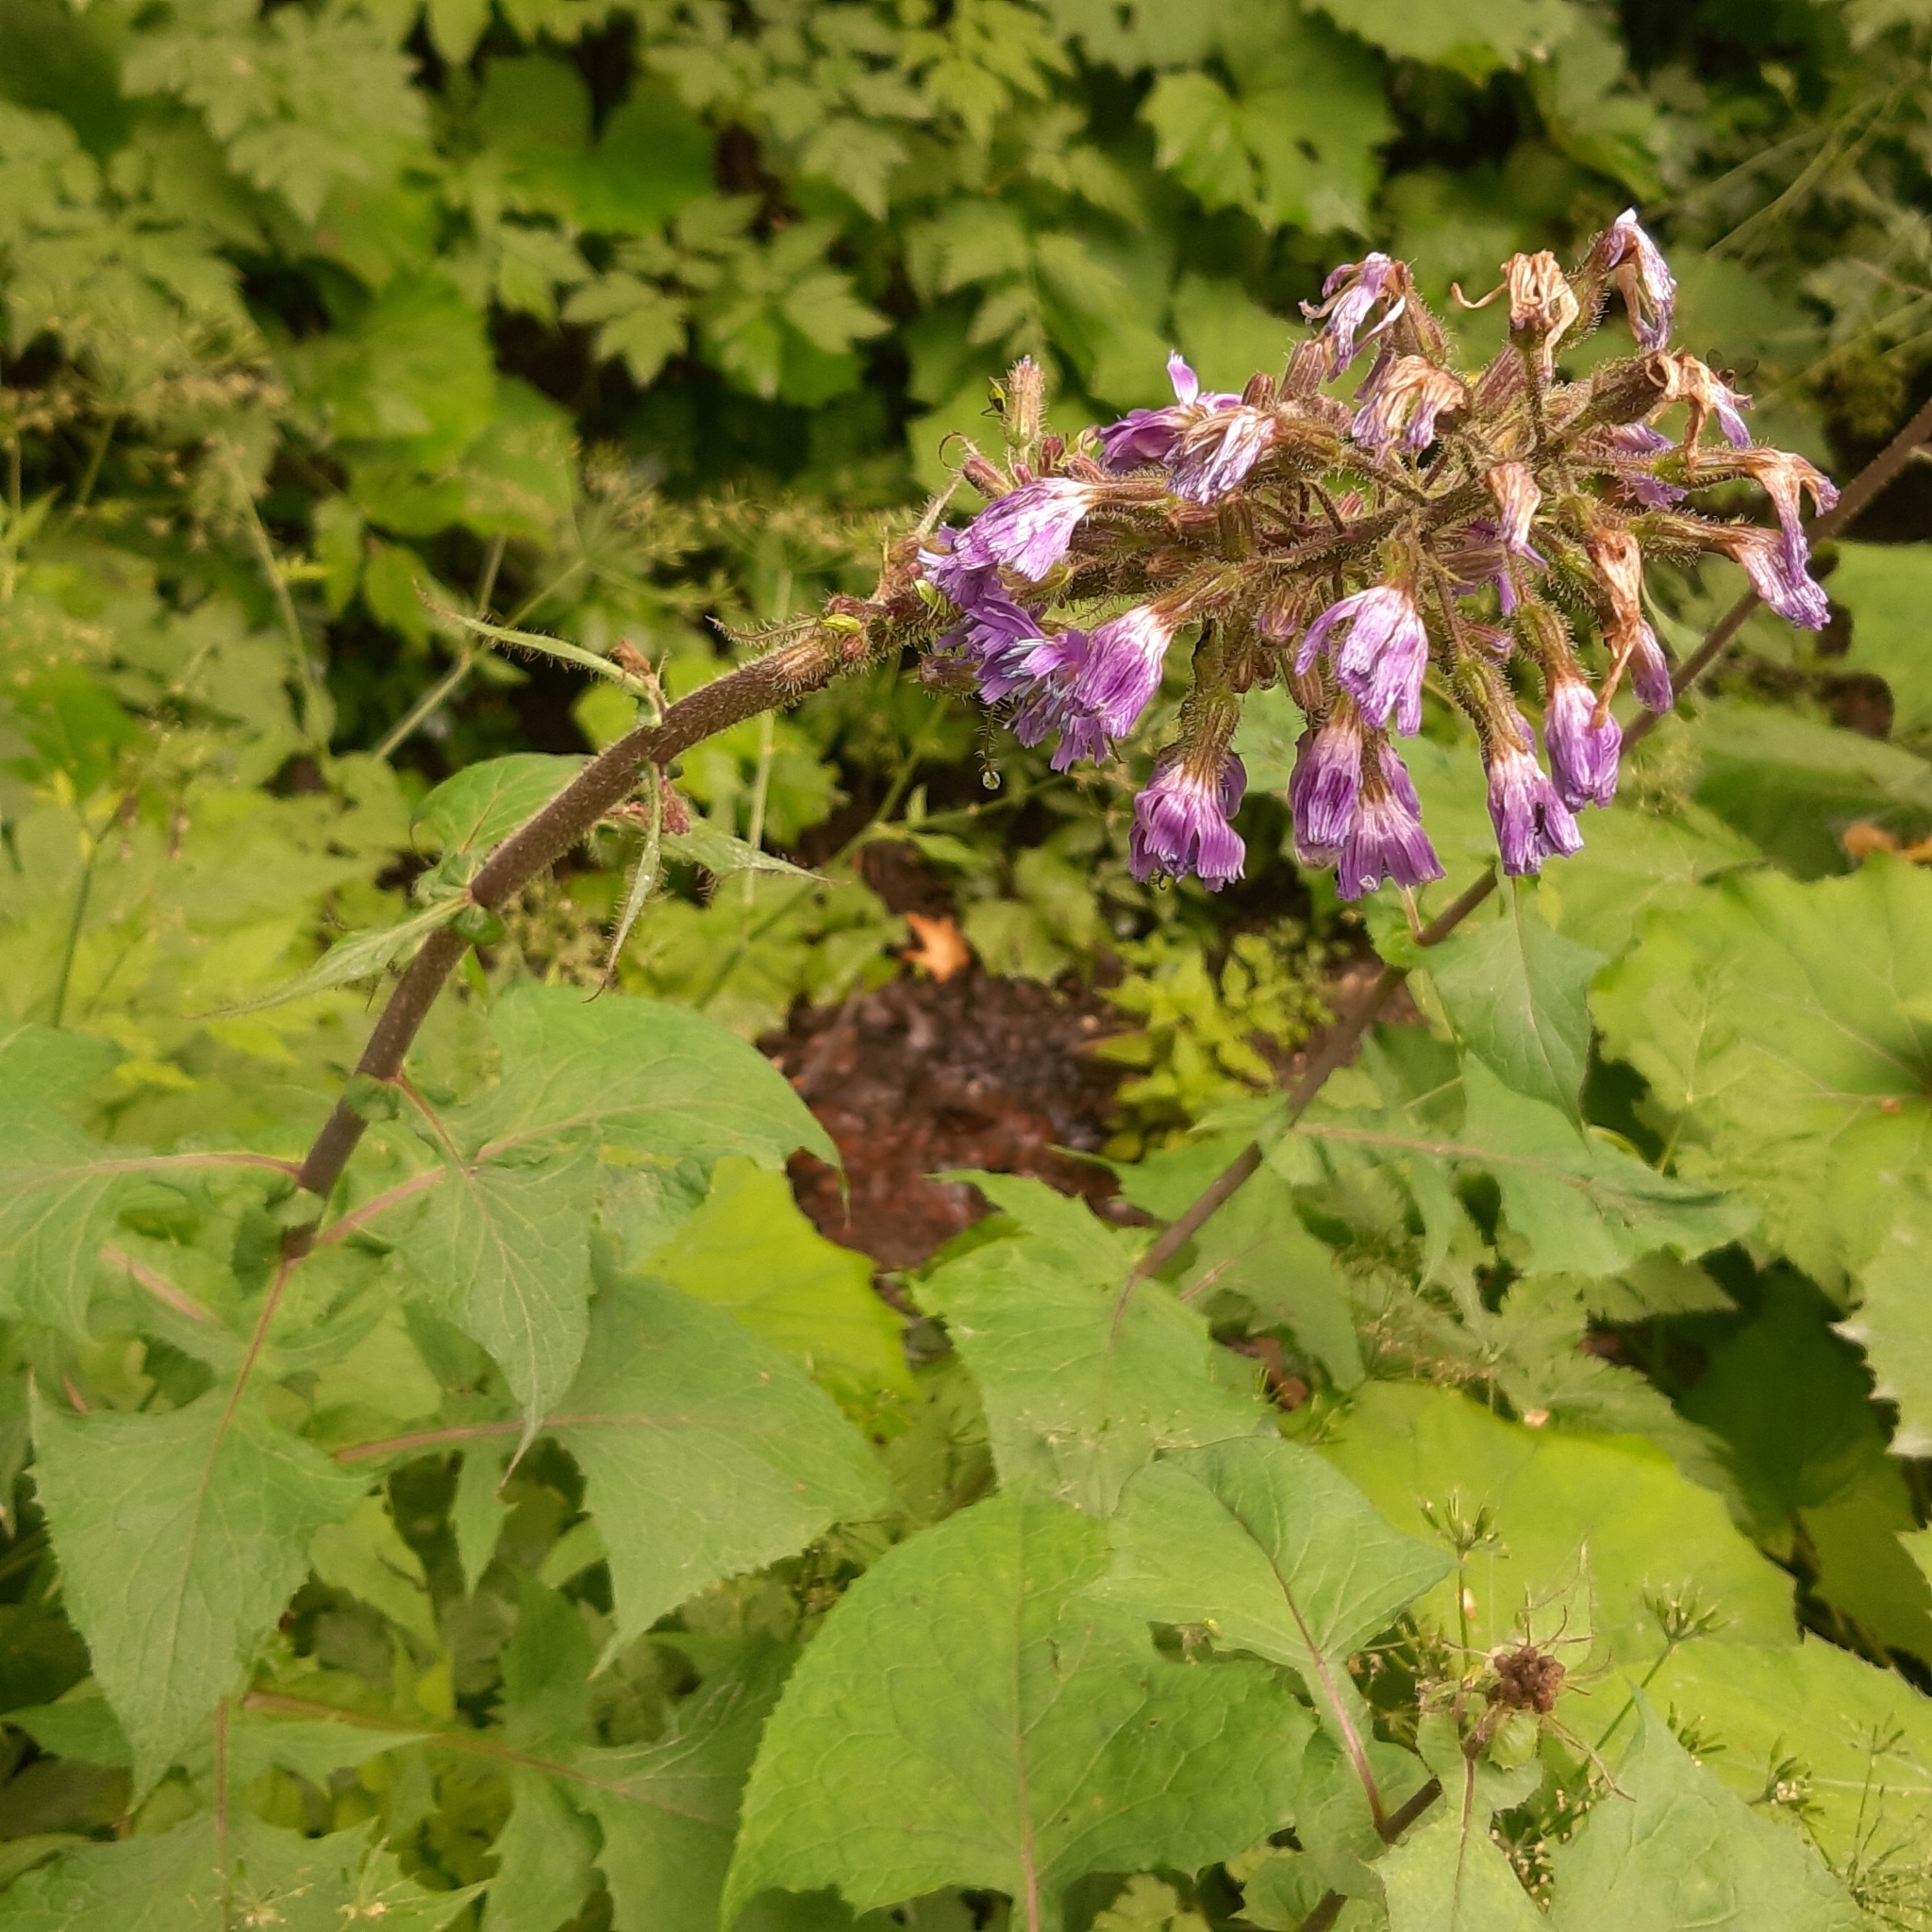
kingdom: Plantae
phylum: Tracheophyta
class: Magnoliopsida
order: Asterales
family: Asteraceae
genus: Cicerbita
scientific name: Cicerbita alpina
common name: Alpine blue-sow-thistle
